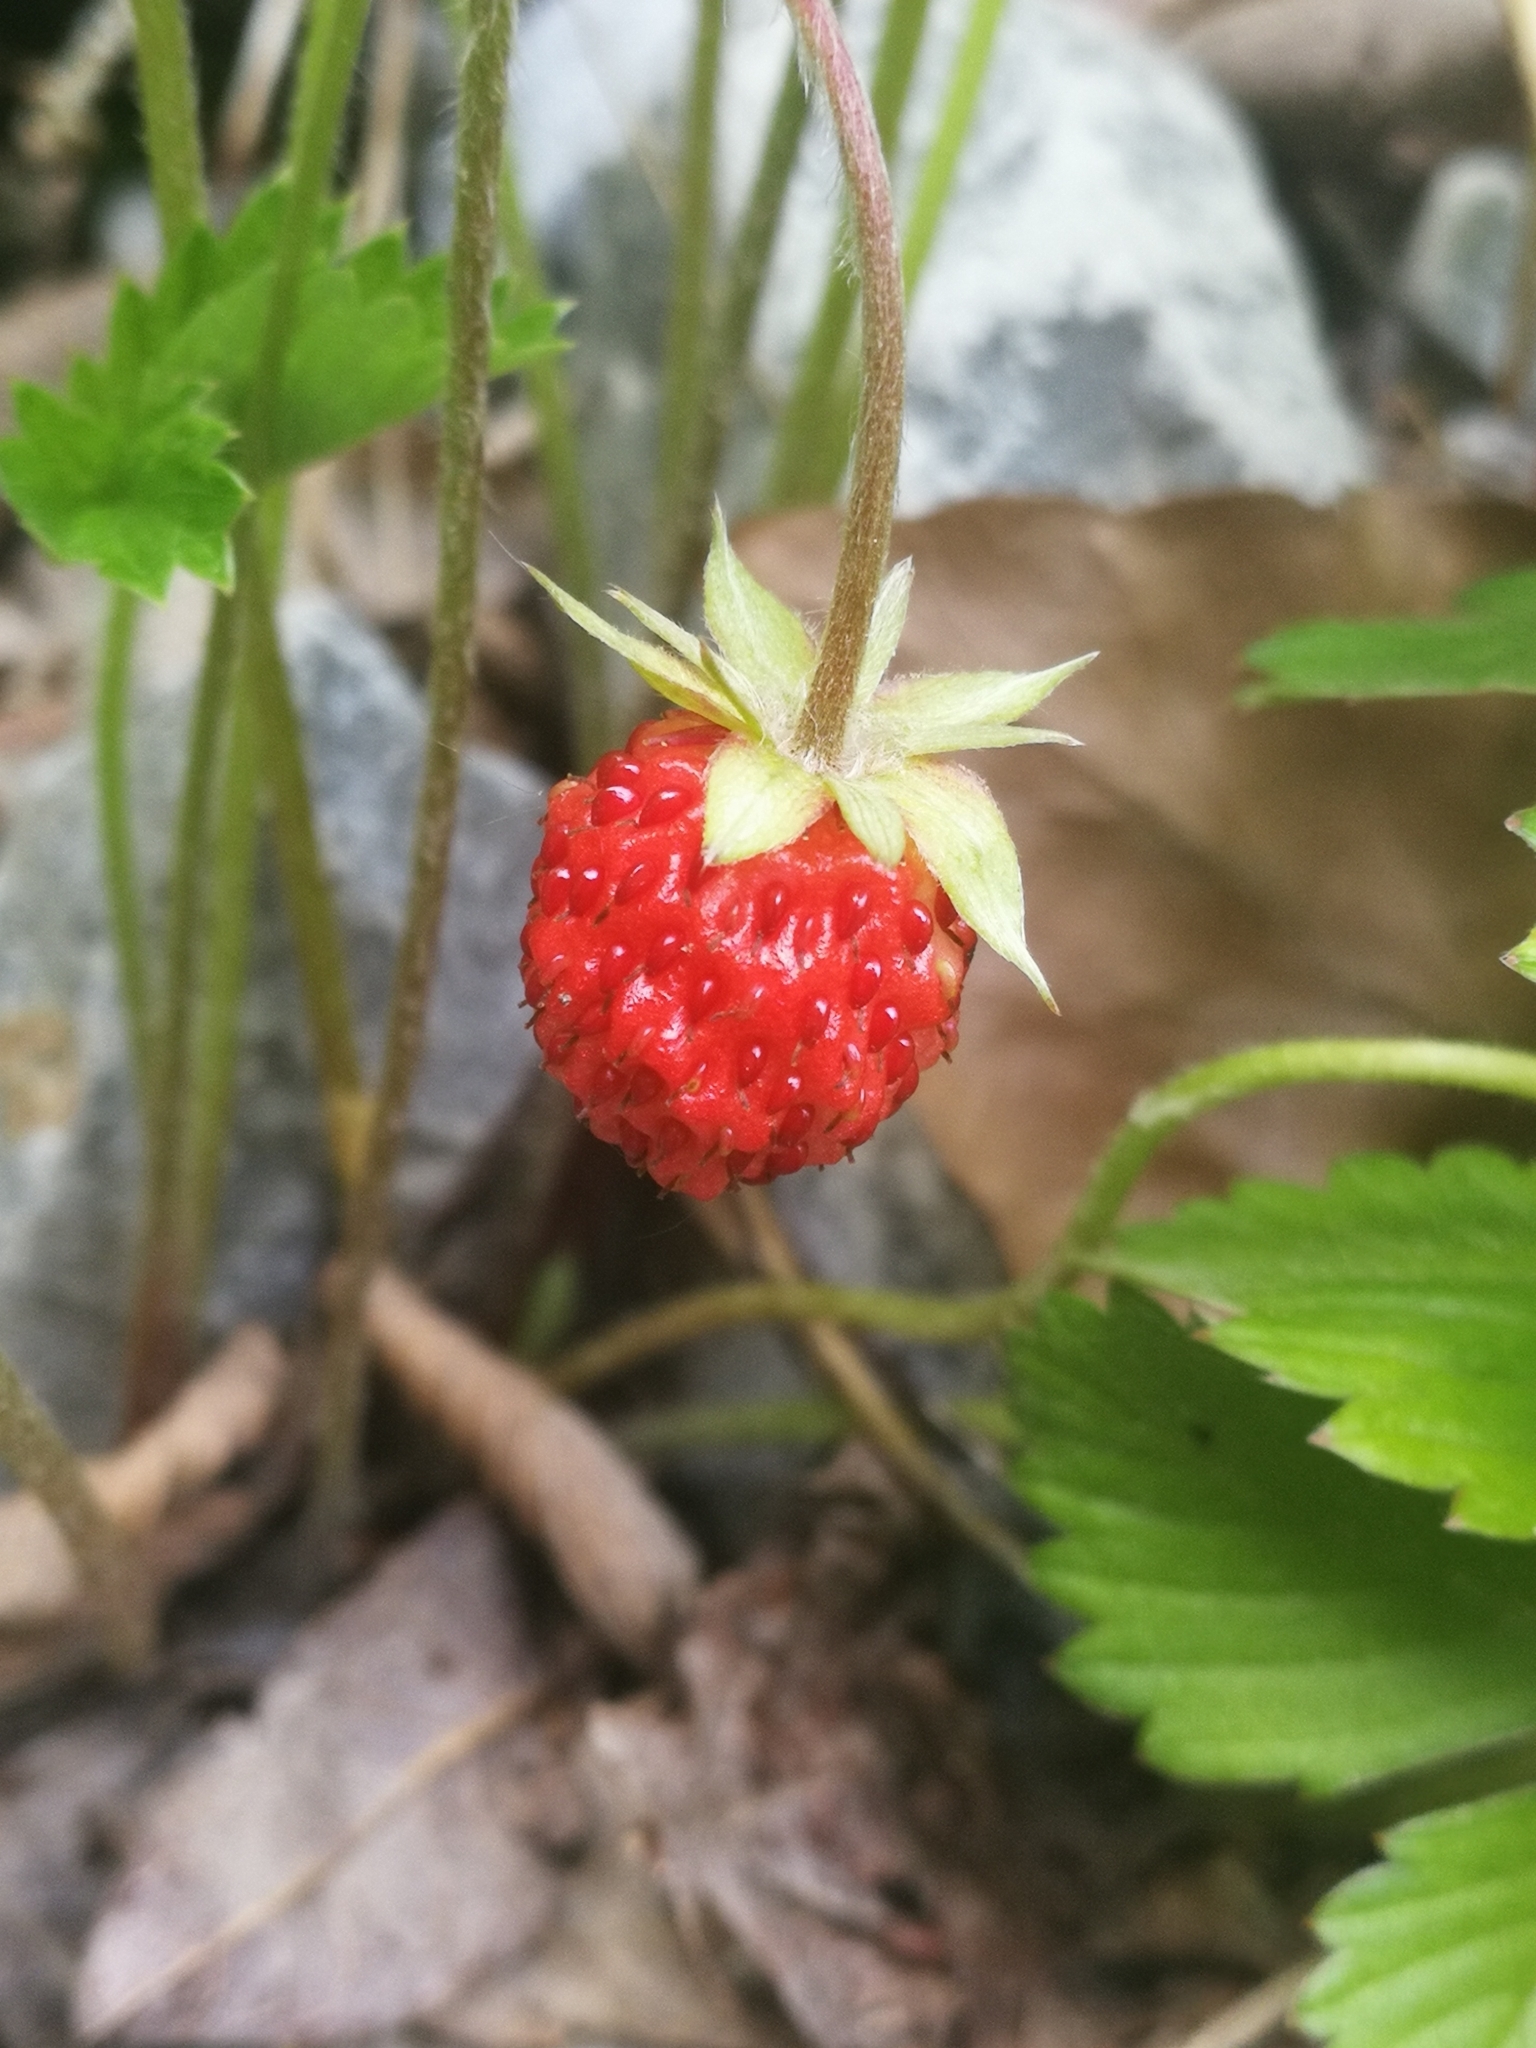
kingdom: Plantae
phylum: Tracheophyta
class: Magnoliopsida
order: Rosales
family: Rosaceae
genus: Fragaria
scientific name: Fragaria vesca
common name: Wild strawberry
